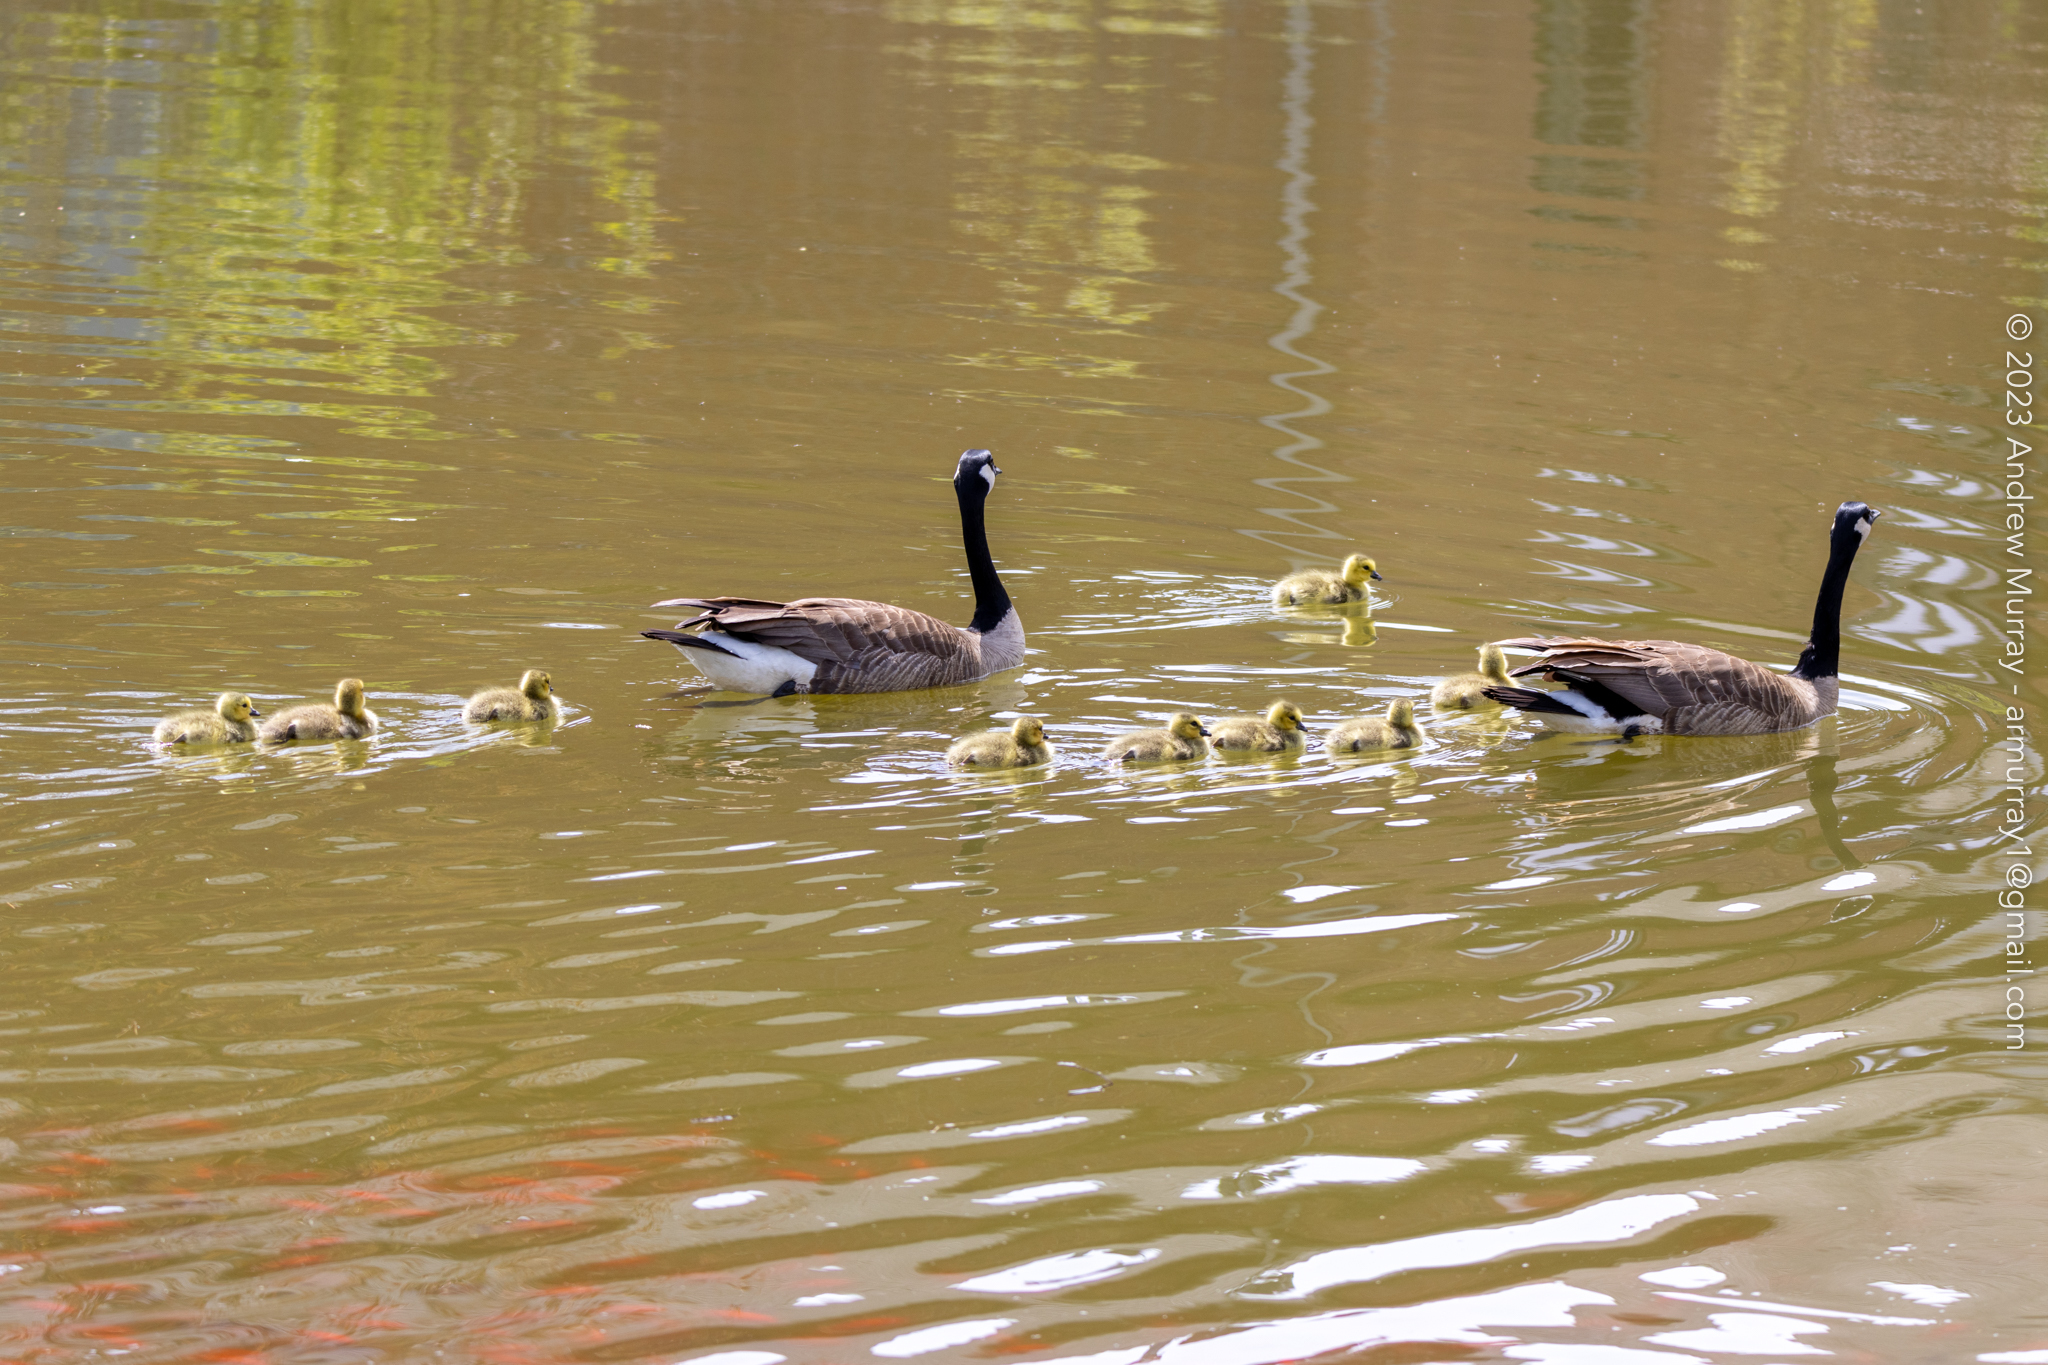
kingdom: Animalia
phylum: Chordata
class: Aves
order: Anseriformes
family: Anatidae
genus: Branta
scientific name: Branta canadensis
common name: Canada goose
